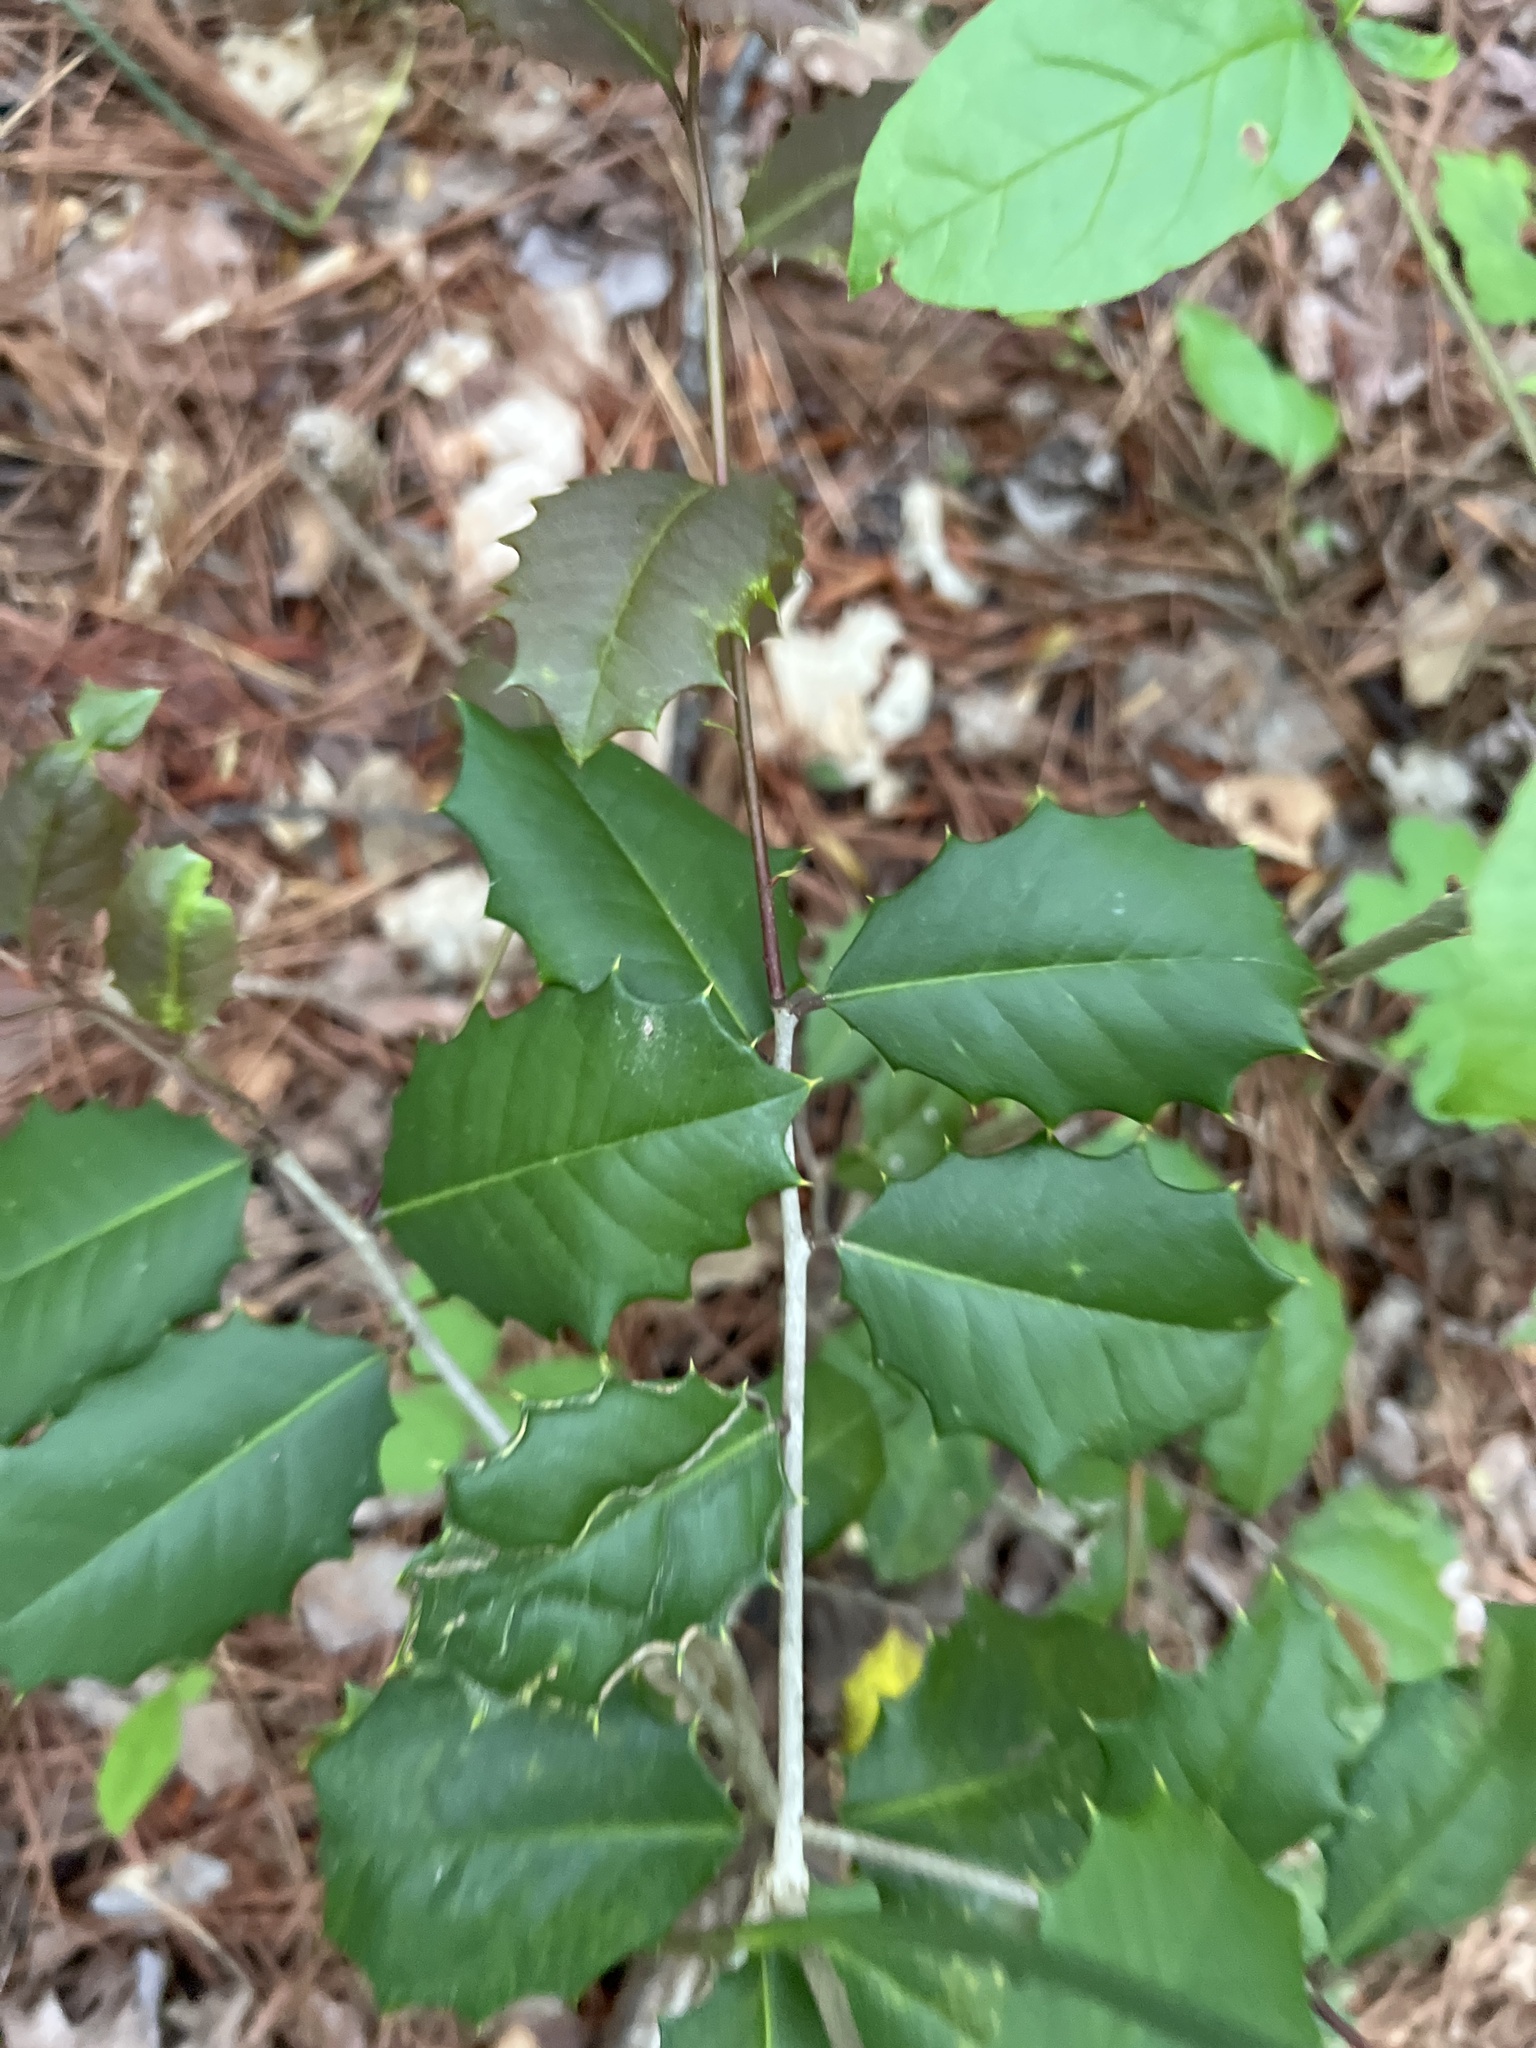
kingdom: Plantae
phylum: Tracheophyta
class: Magnoliopsida
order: Aquifoliales
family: Aquifoliaceae
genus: Ilex
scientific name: Ilex opaca
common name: American holly
